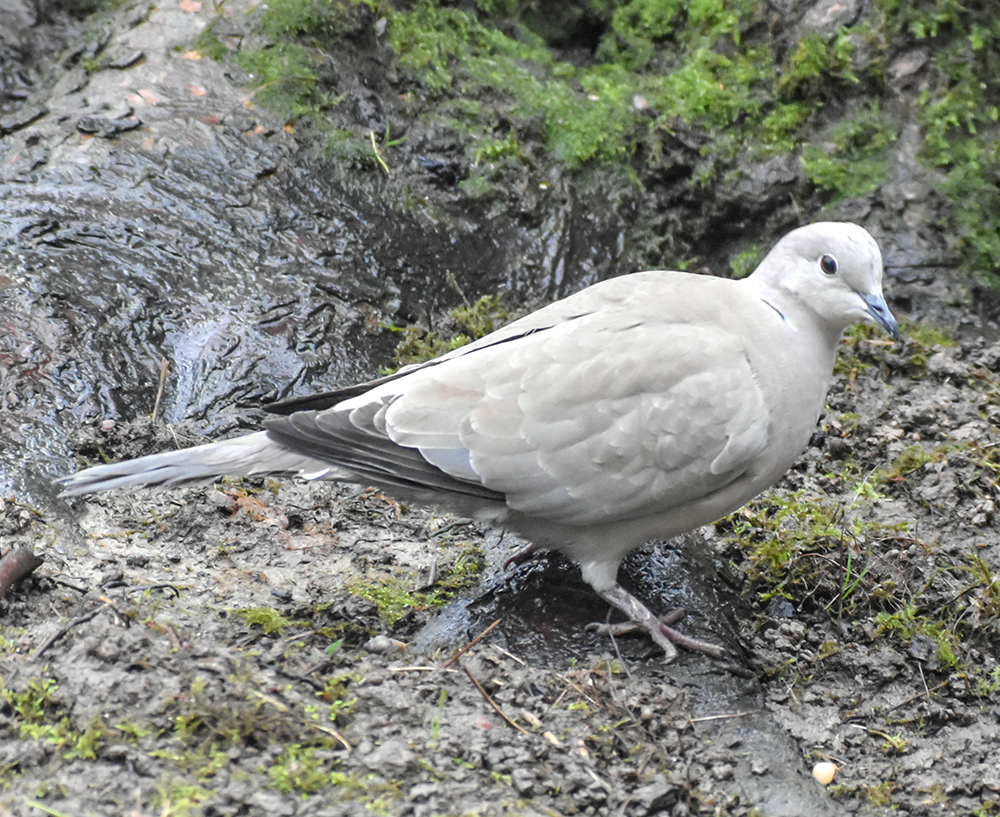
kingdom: Animalia
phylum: Chordata
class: Aves
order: Columbiformes
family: Columbidae
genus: Streptopelia
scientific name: Streptopelia decaocto
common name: Eurasian collared dove
